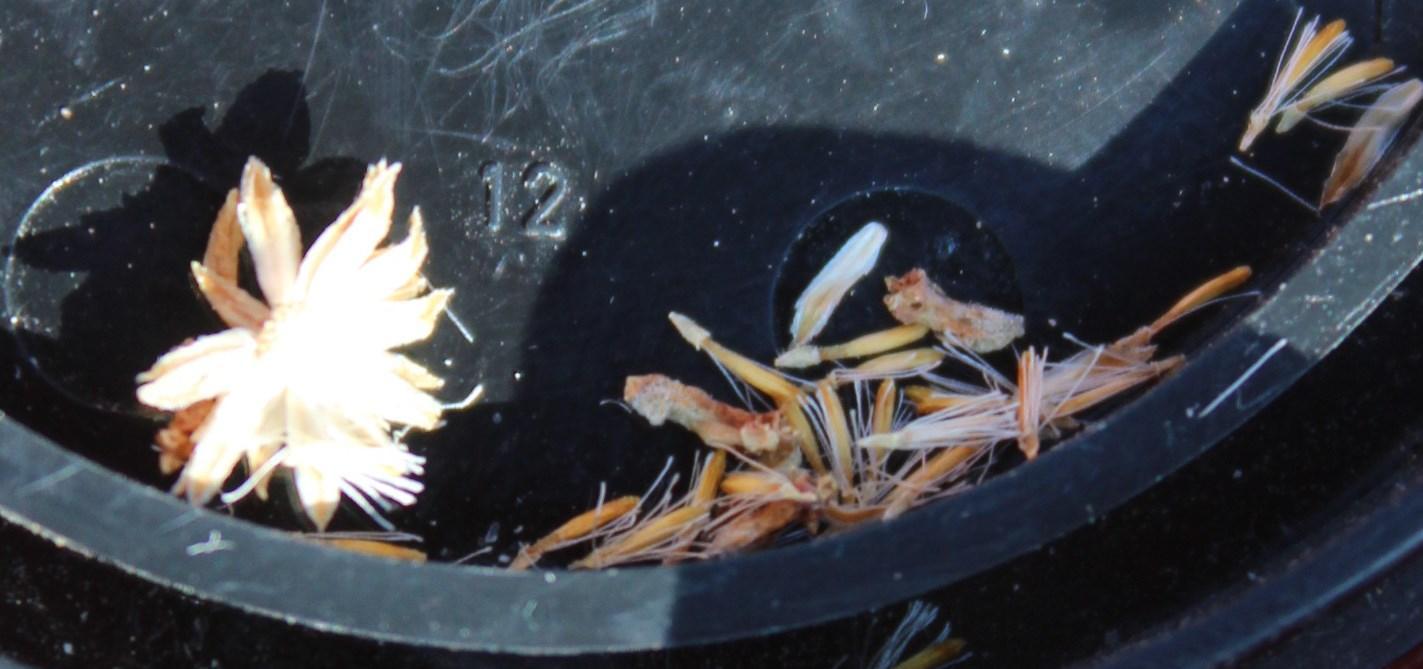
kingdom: Plantae
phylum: Tracheophyta
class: Magnoliopsida
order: Asterales
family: Asteraceae
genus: Chrysocoma
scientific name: Chrysocoma ciliata
